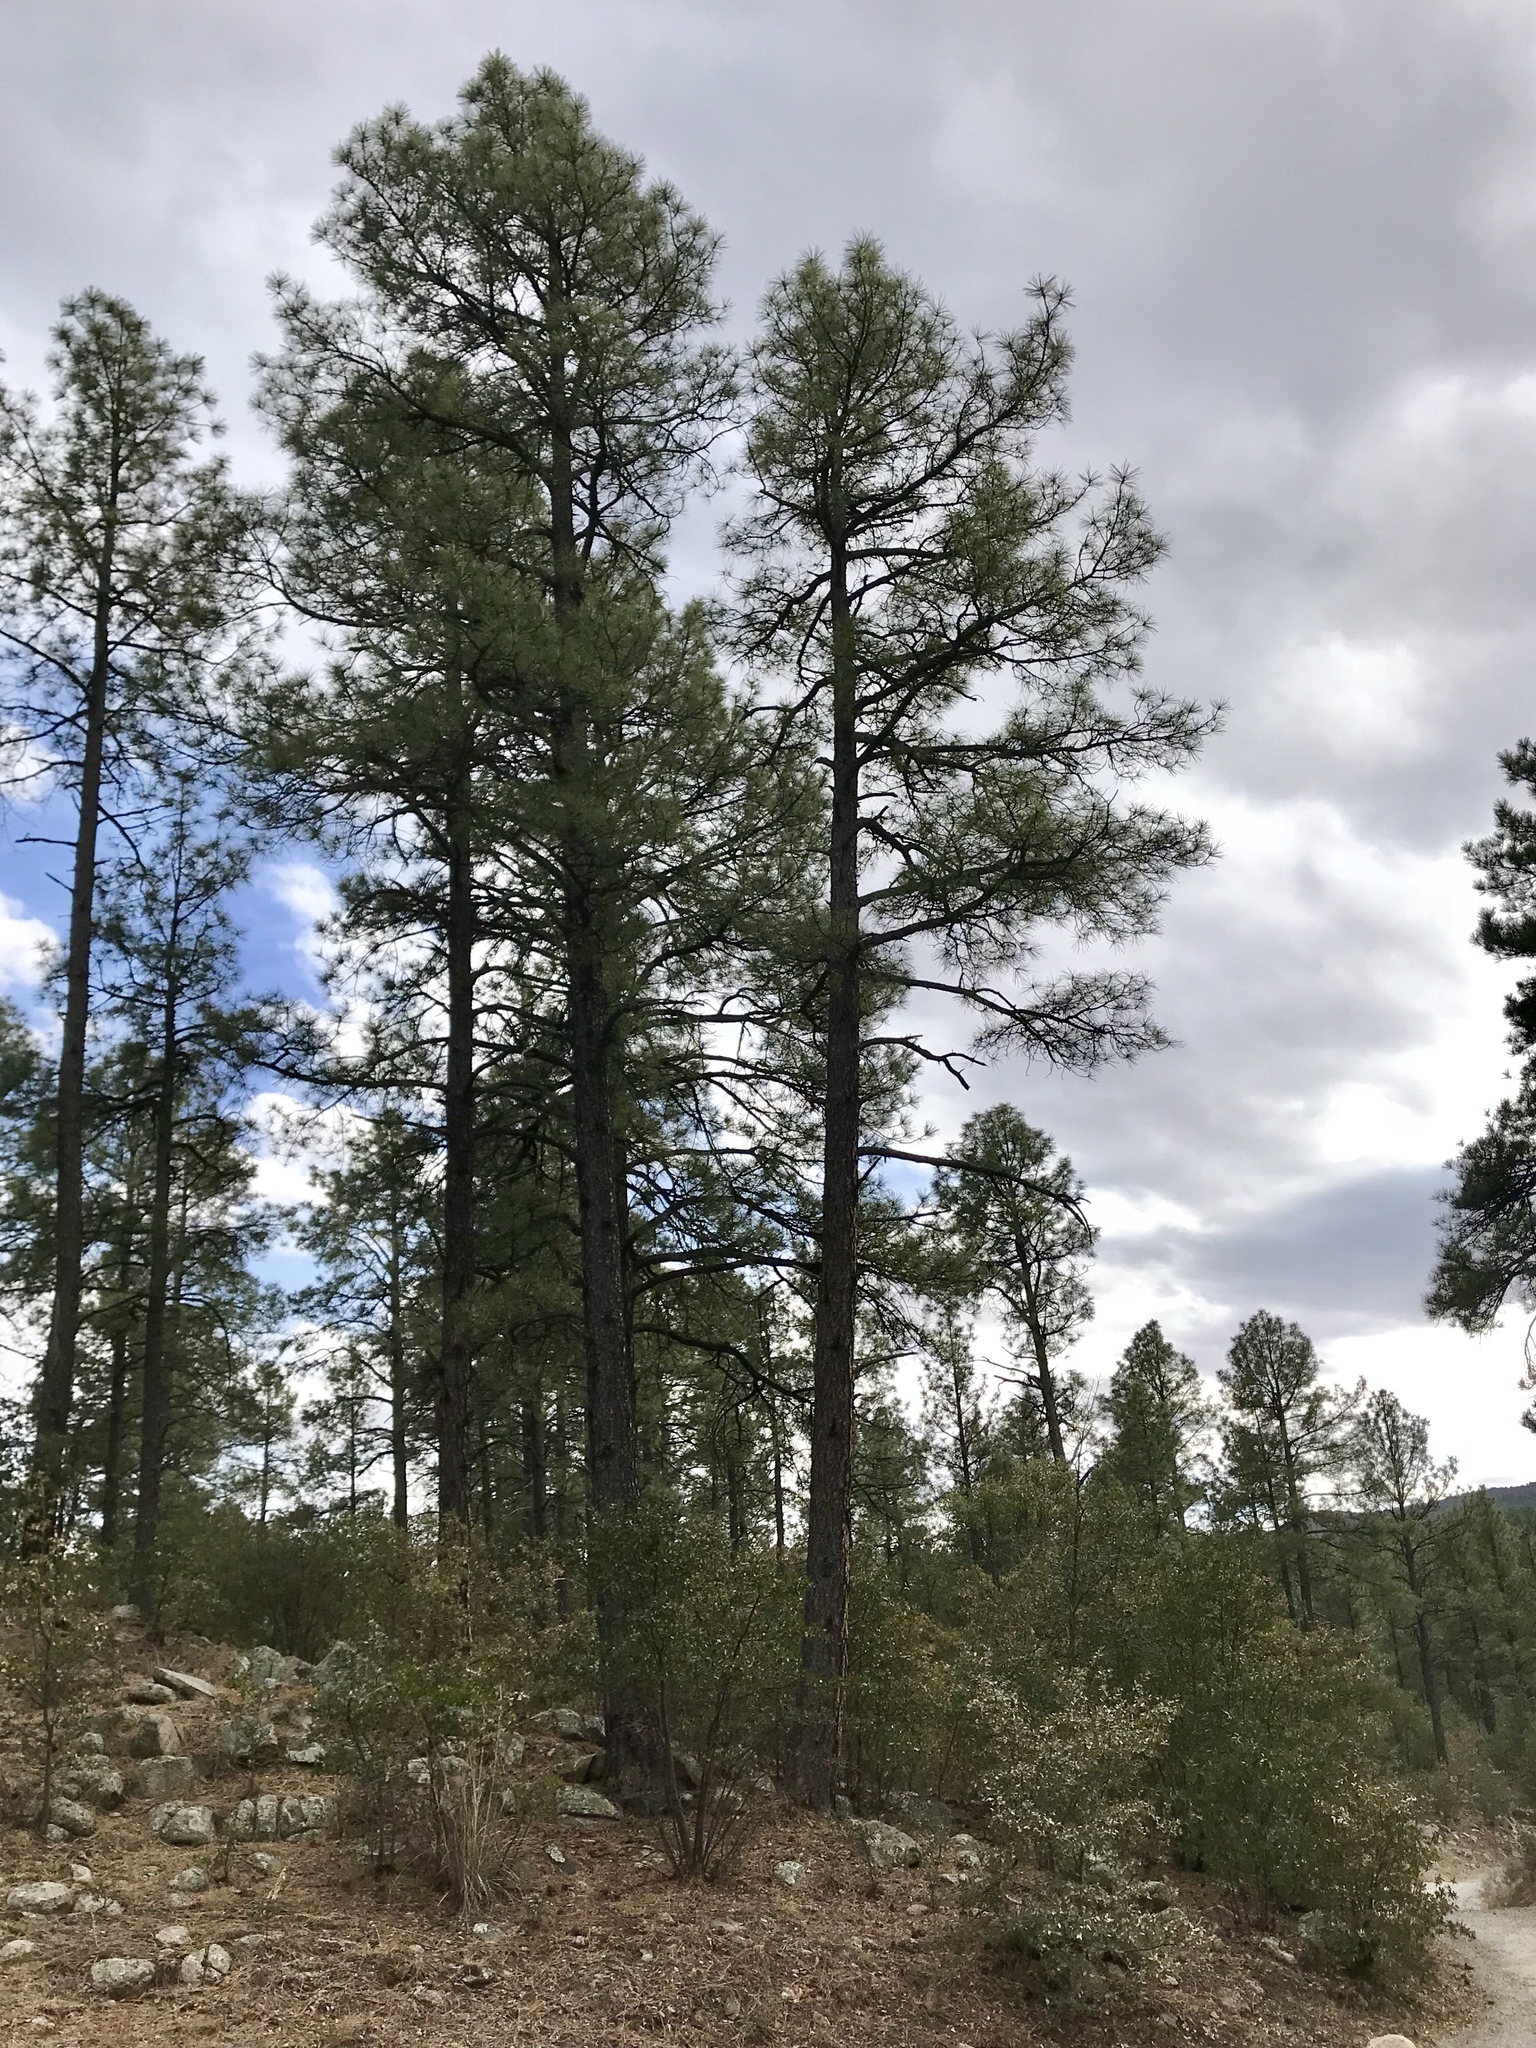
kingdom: Plantae
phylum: Tracheophyta
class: Pinopsida
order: Pinales
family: Pinaceae
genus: Pinus
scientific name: Pinus ponderosa
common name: Western yellow-pine
